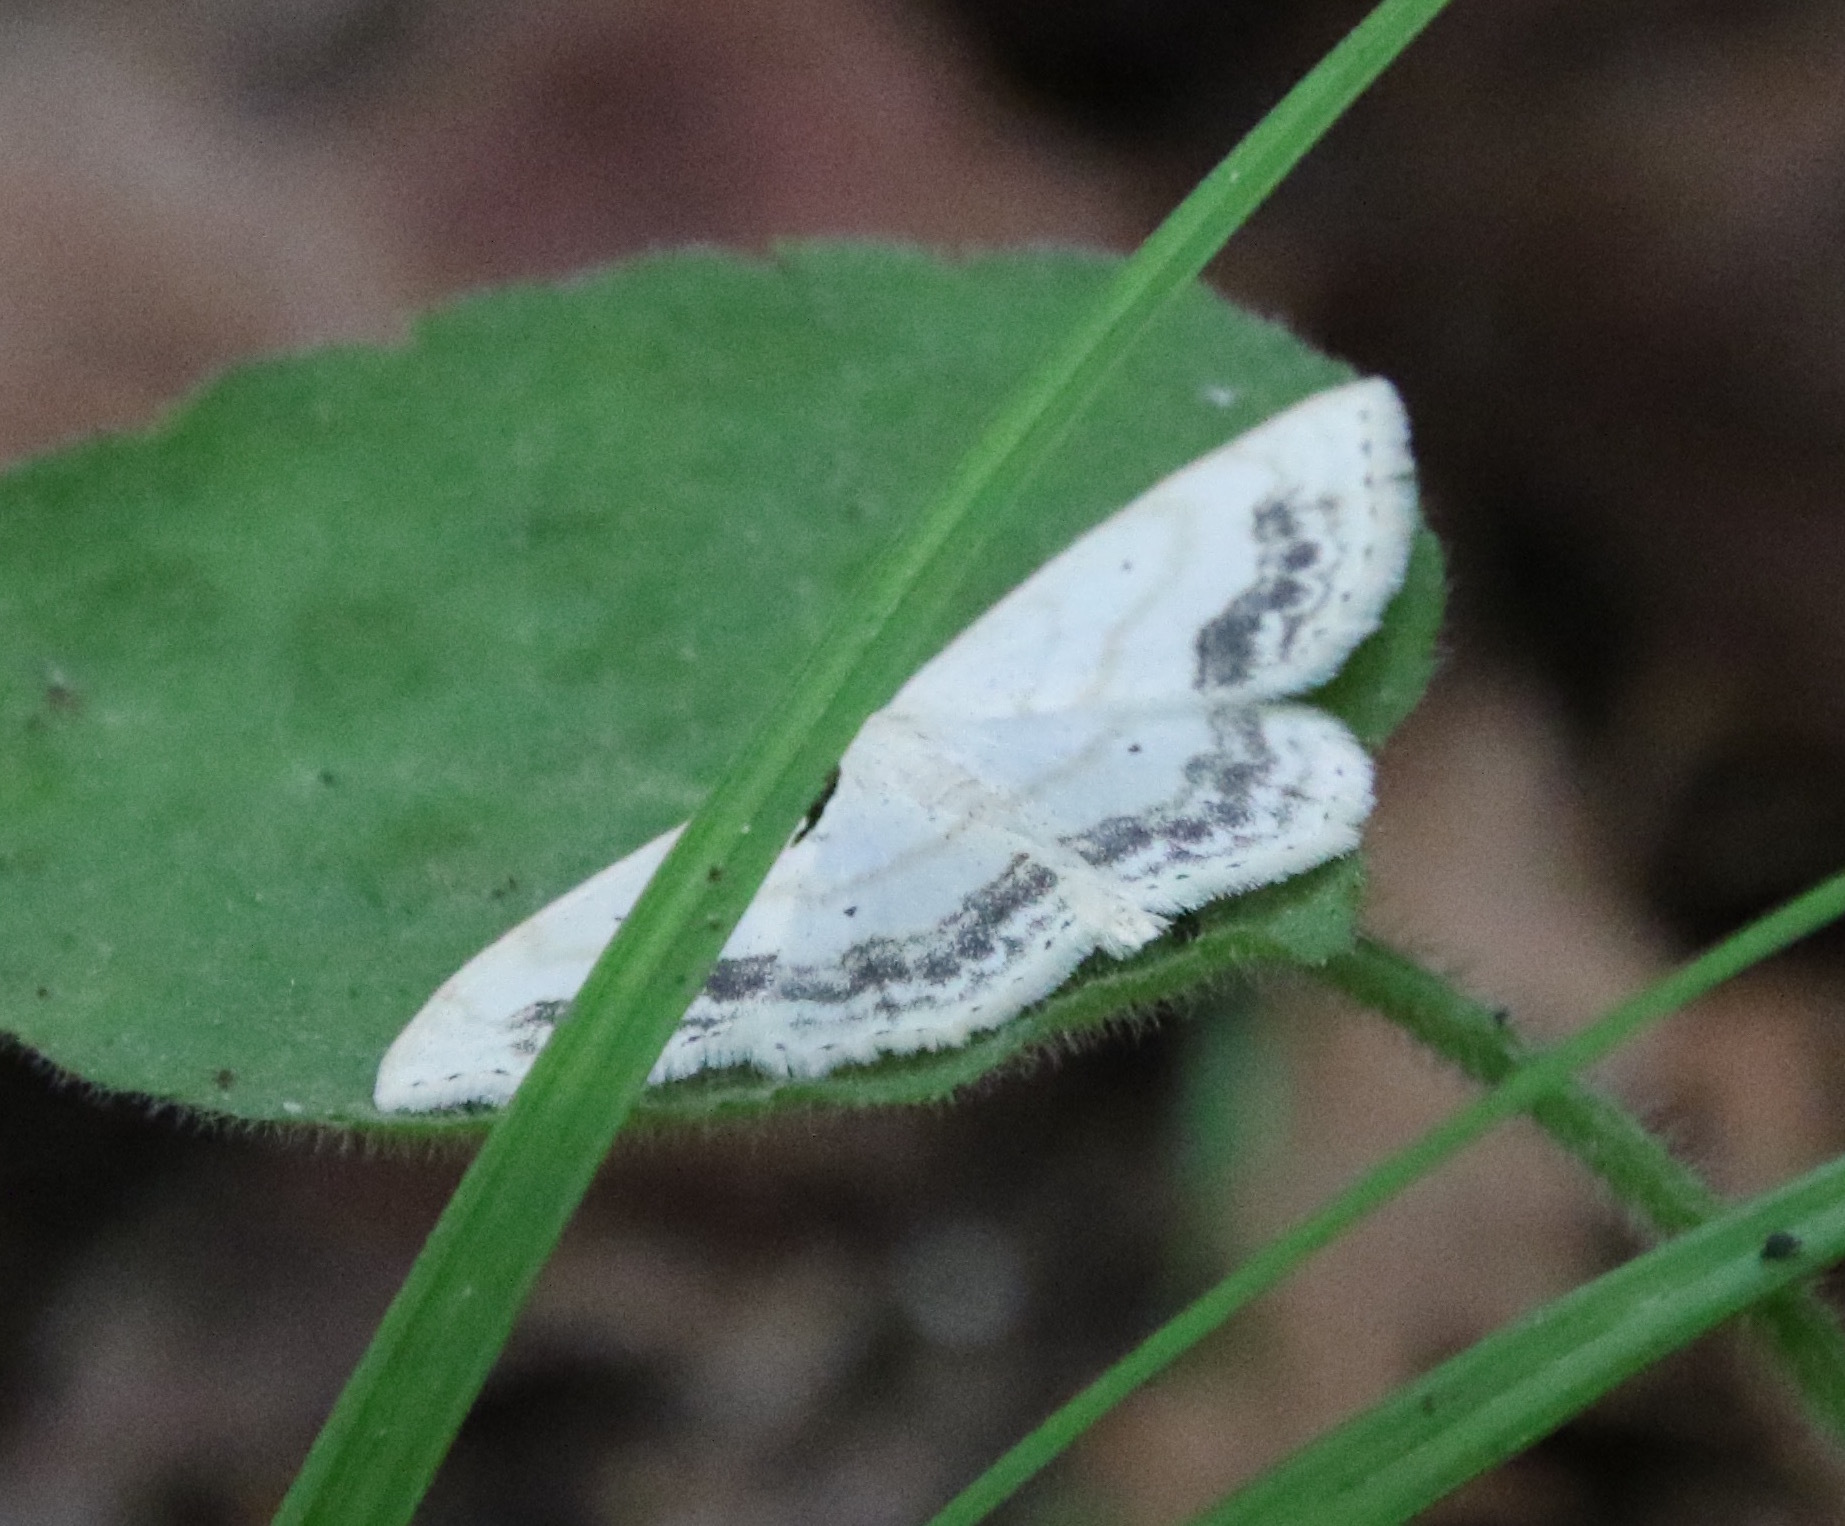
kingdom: Animalia
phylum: Arthropoda
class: Insecta
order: Lepidoptera
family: Geometridae
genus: Scopula
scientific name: Scopula limboundata
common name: Large lace border
